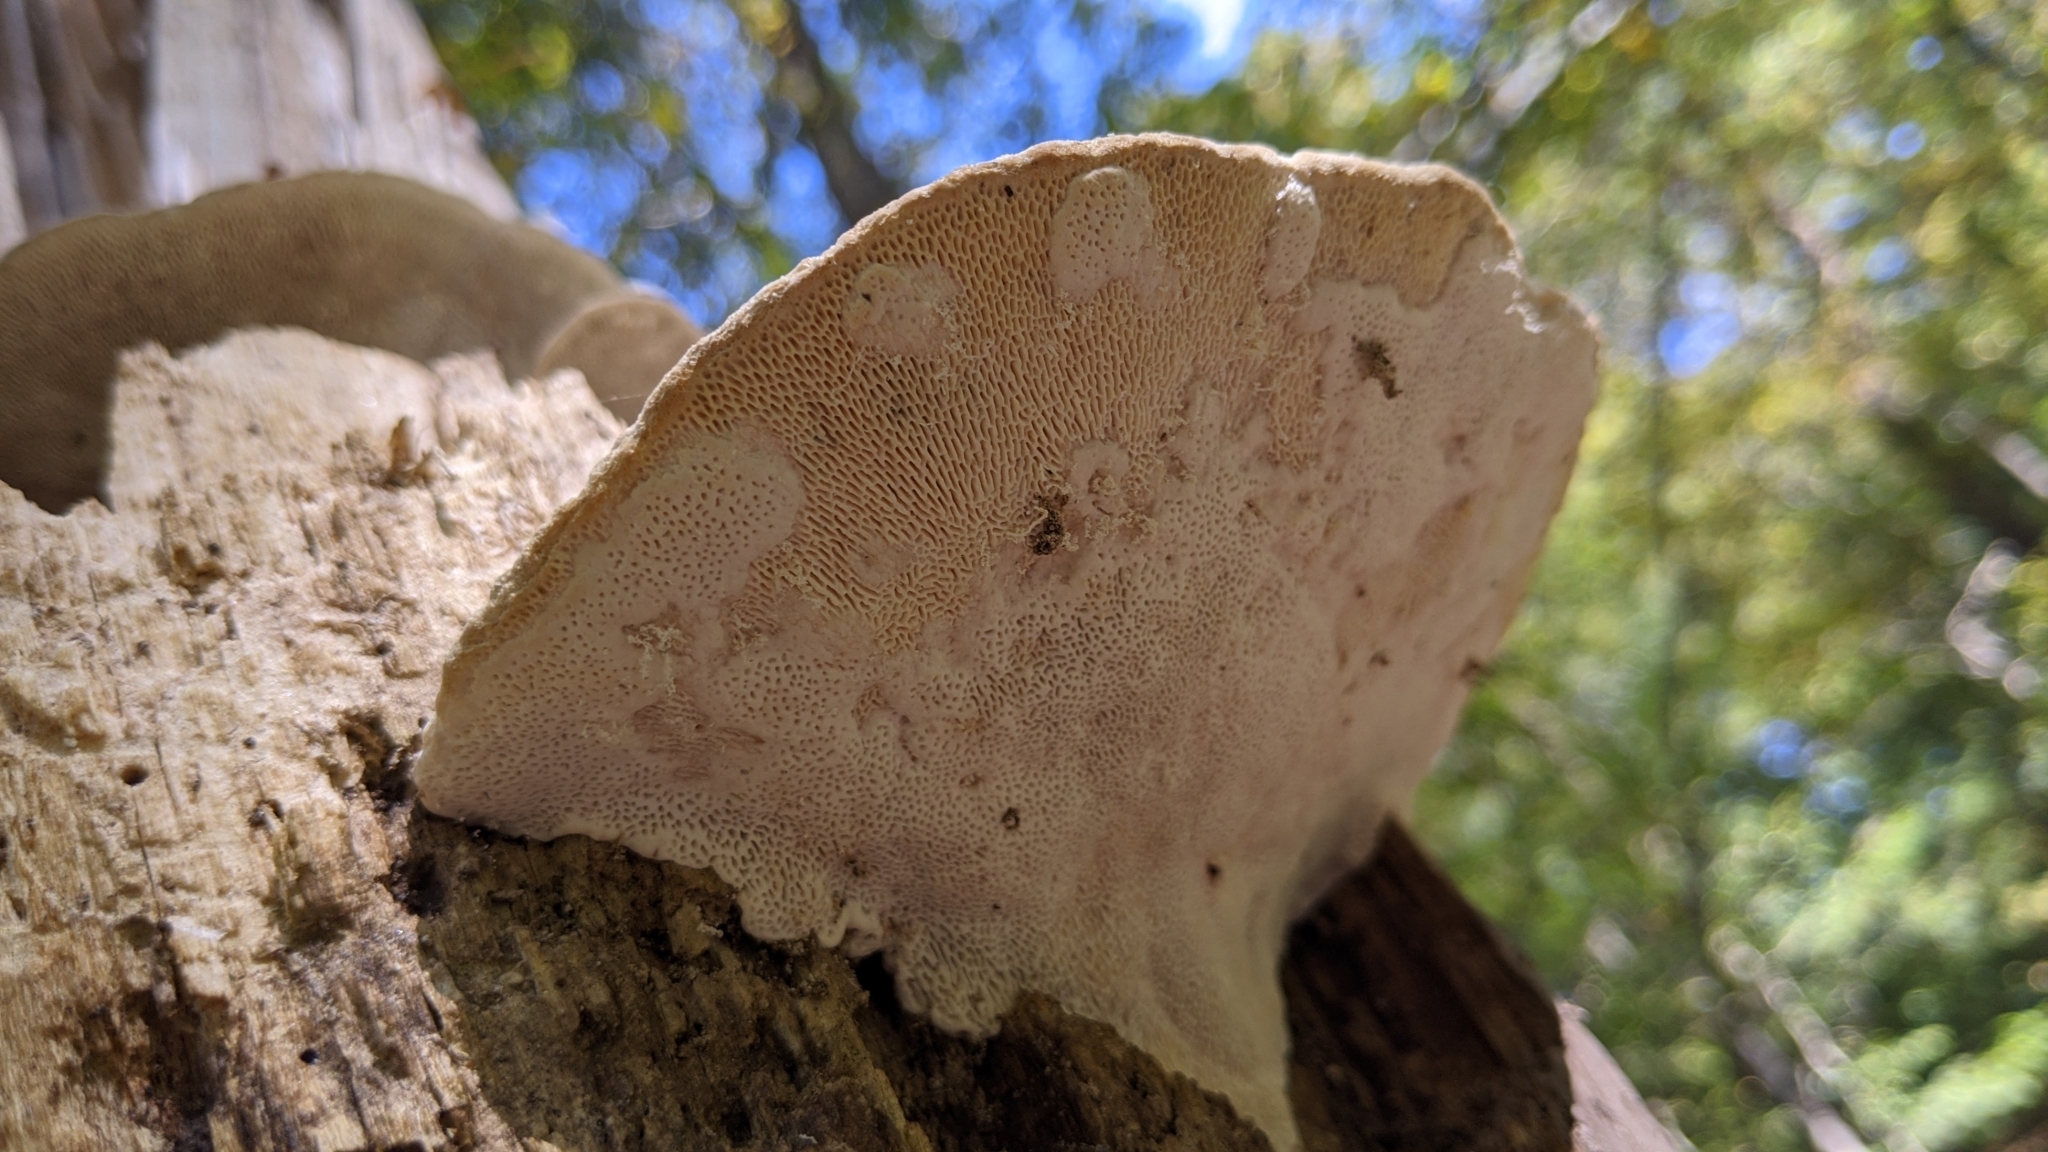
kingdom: Fungi
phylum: Basidiomycota
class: Agaricomycetes
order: Polyporales
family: Polyporaceae
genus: Trametes
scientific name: Trametes gibbosa
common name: Lumpy bracket
